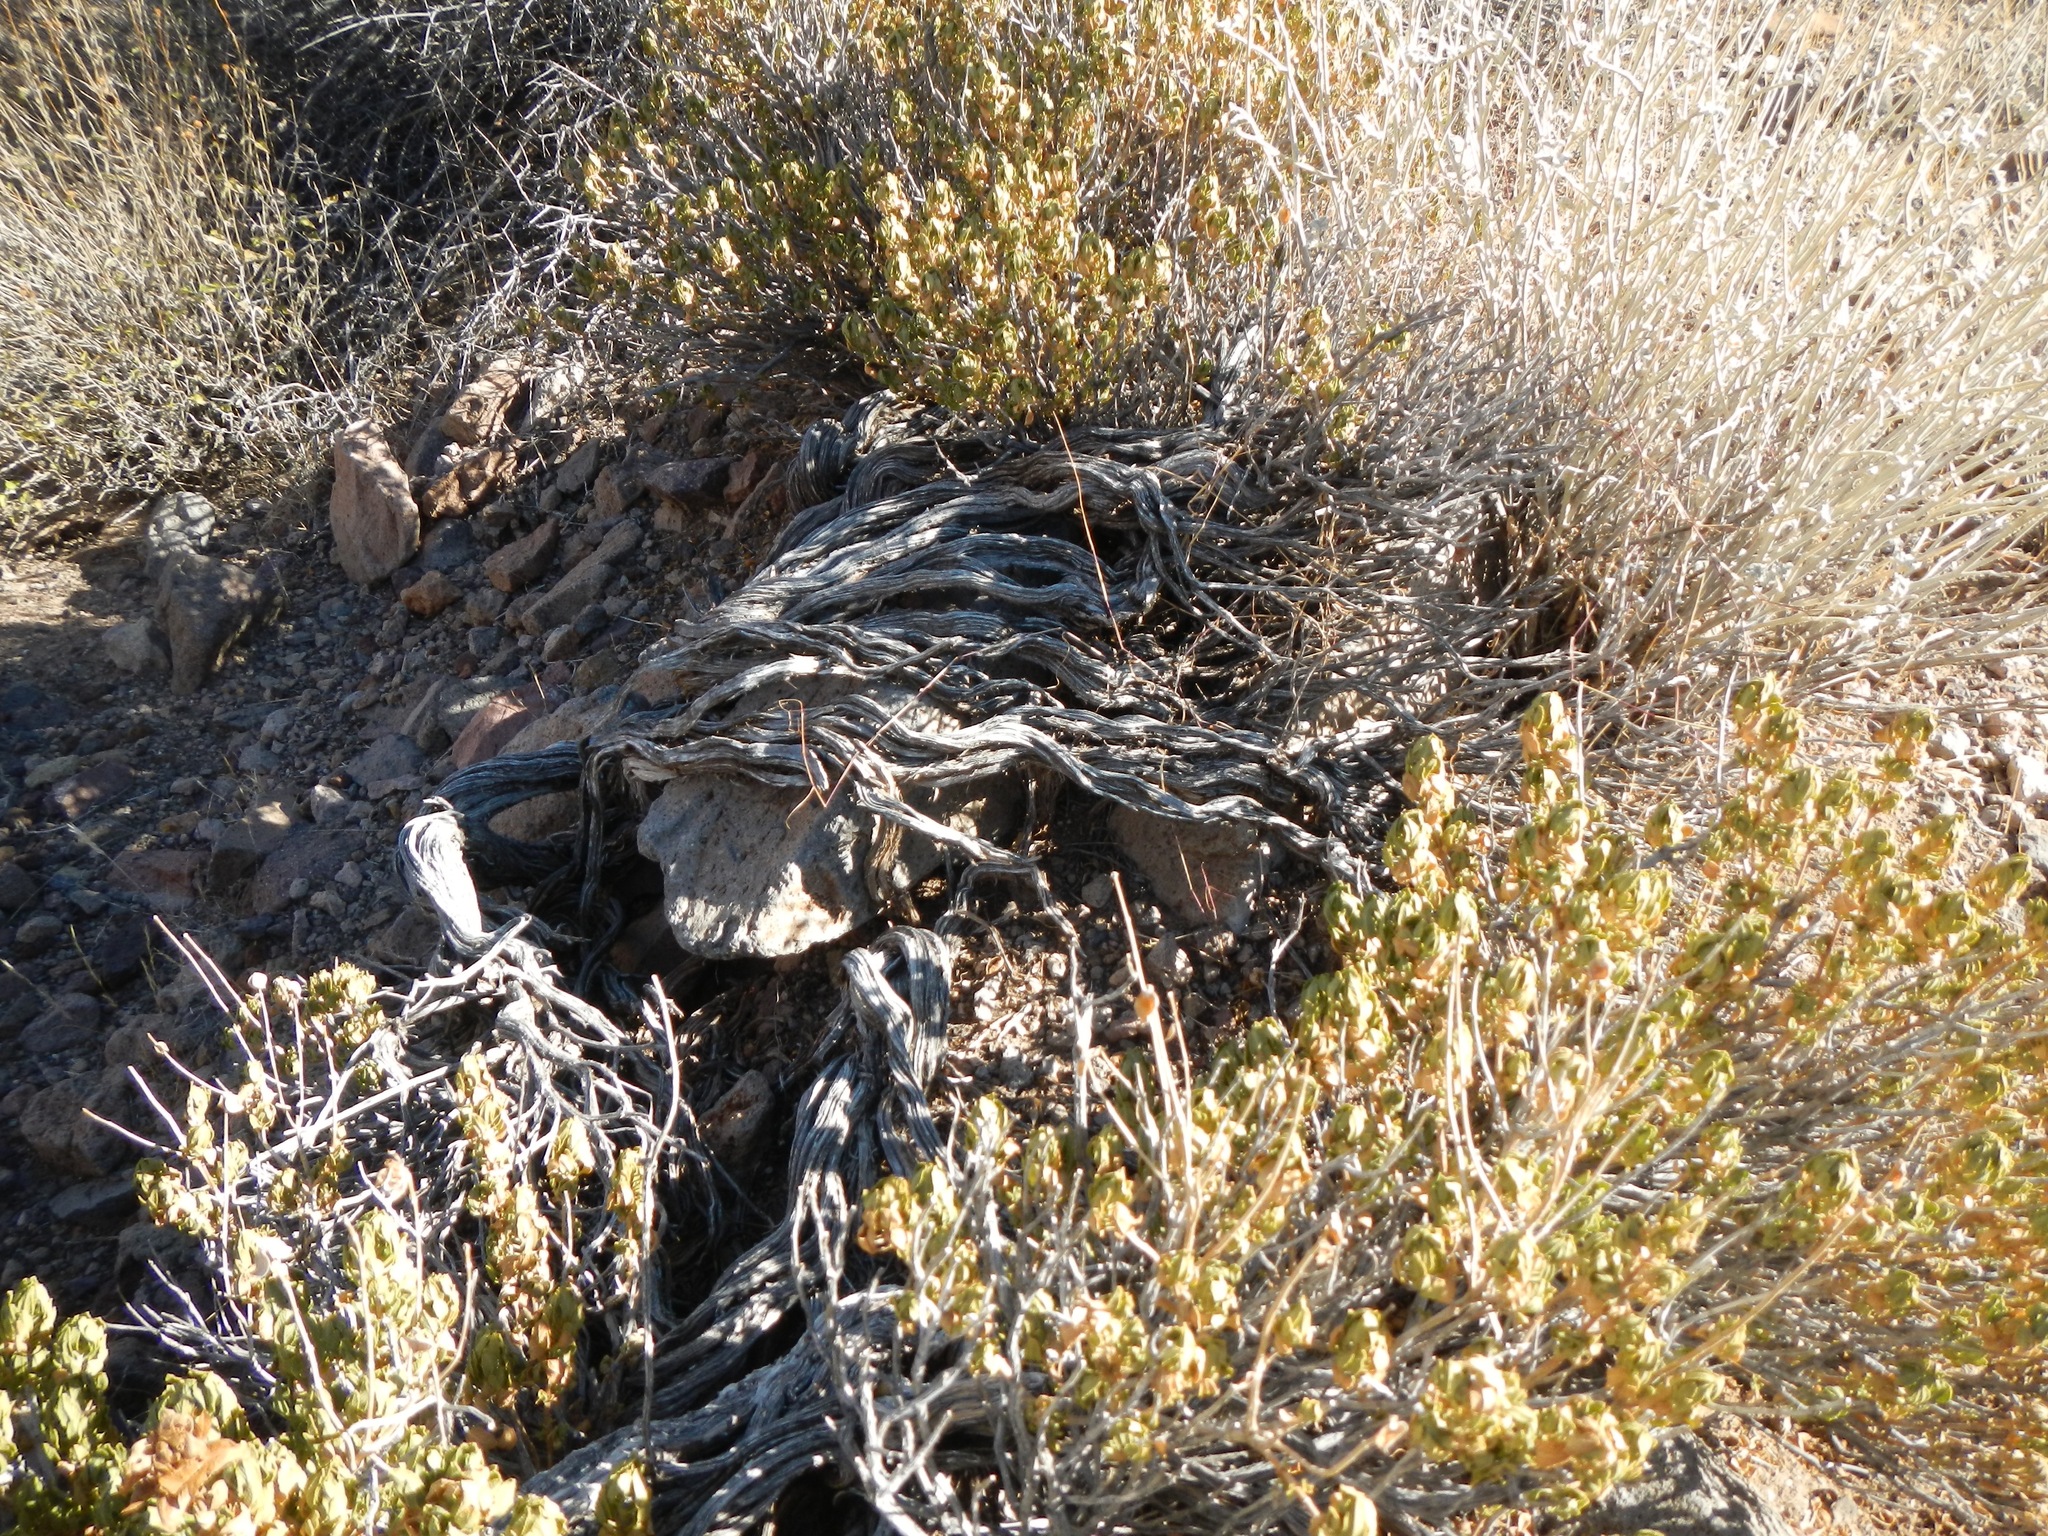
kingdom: Plantae
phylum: Tracheophyta
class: Magnoliopsida
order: Lamiales
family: Lamiaceae
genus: Salvia
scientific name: Salvia mohavensis
